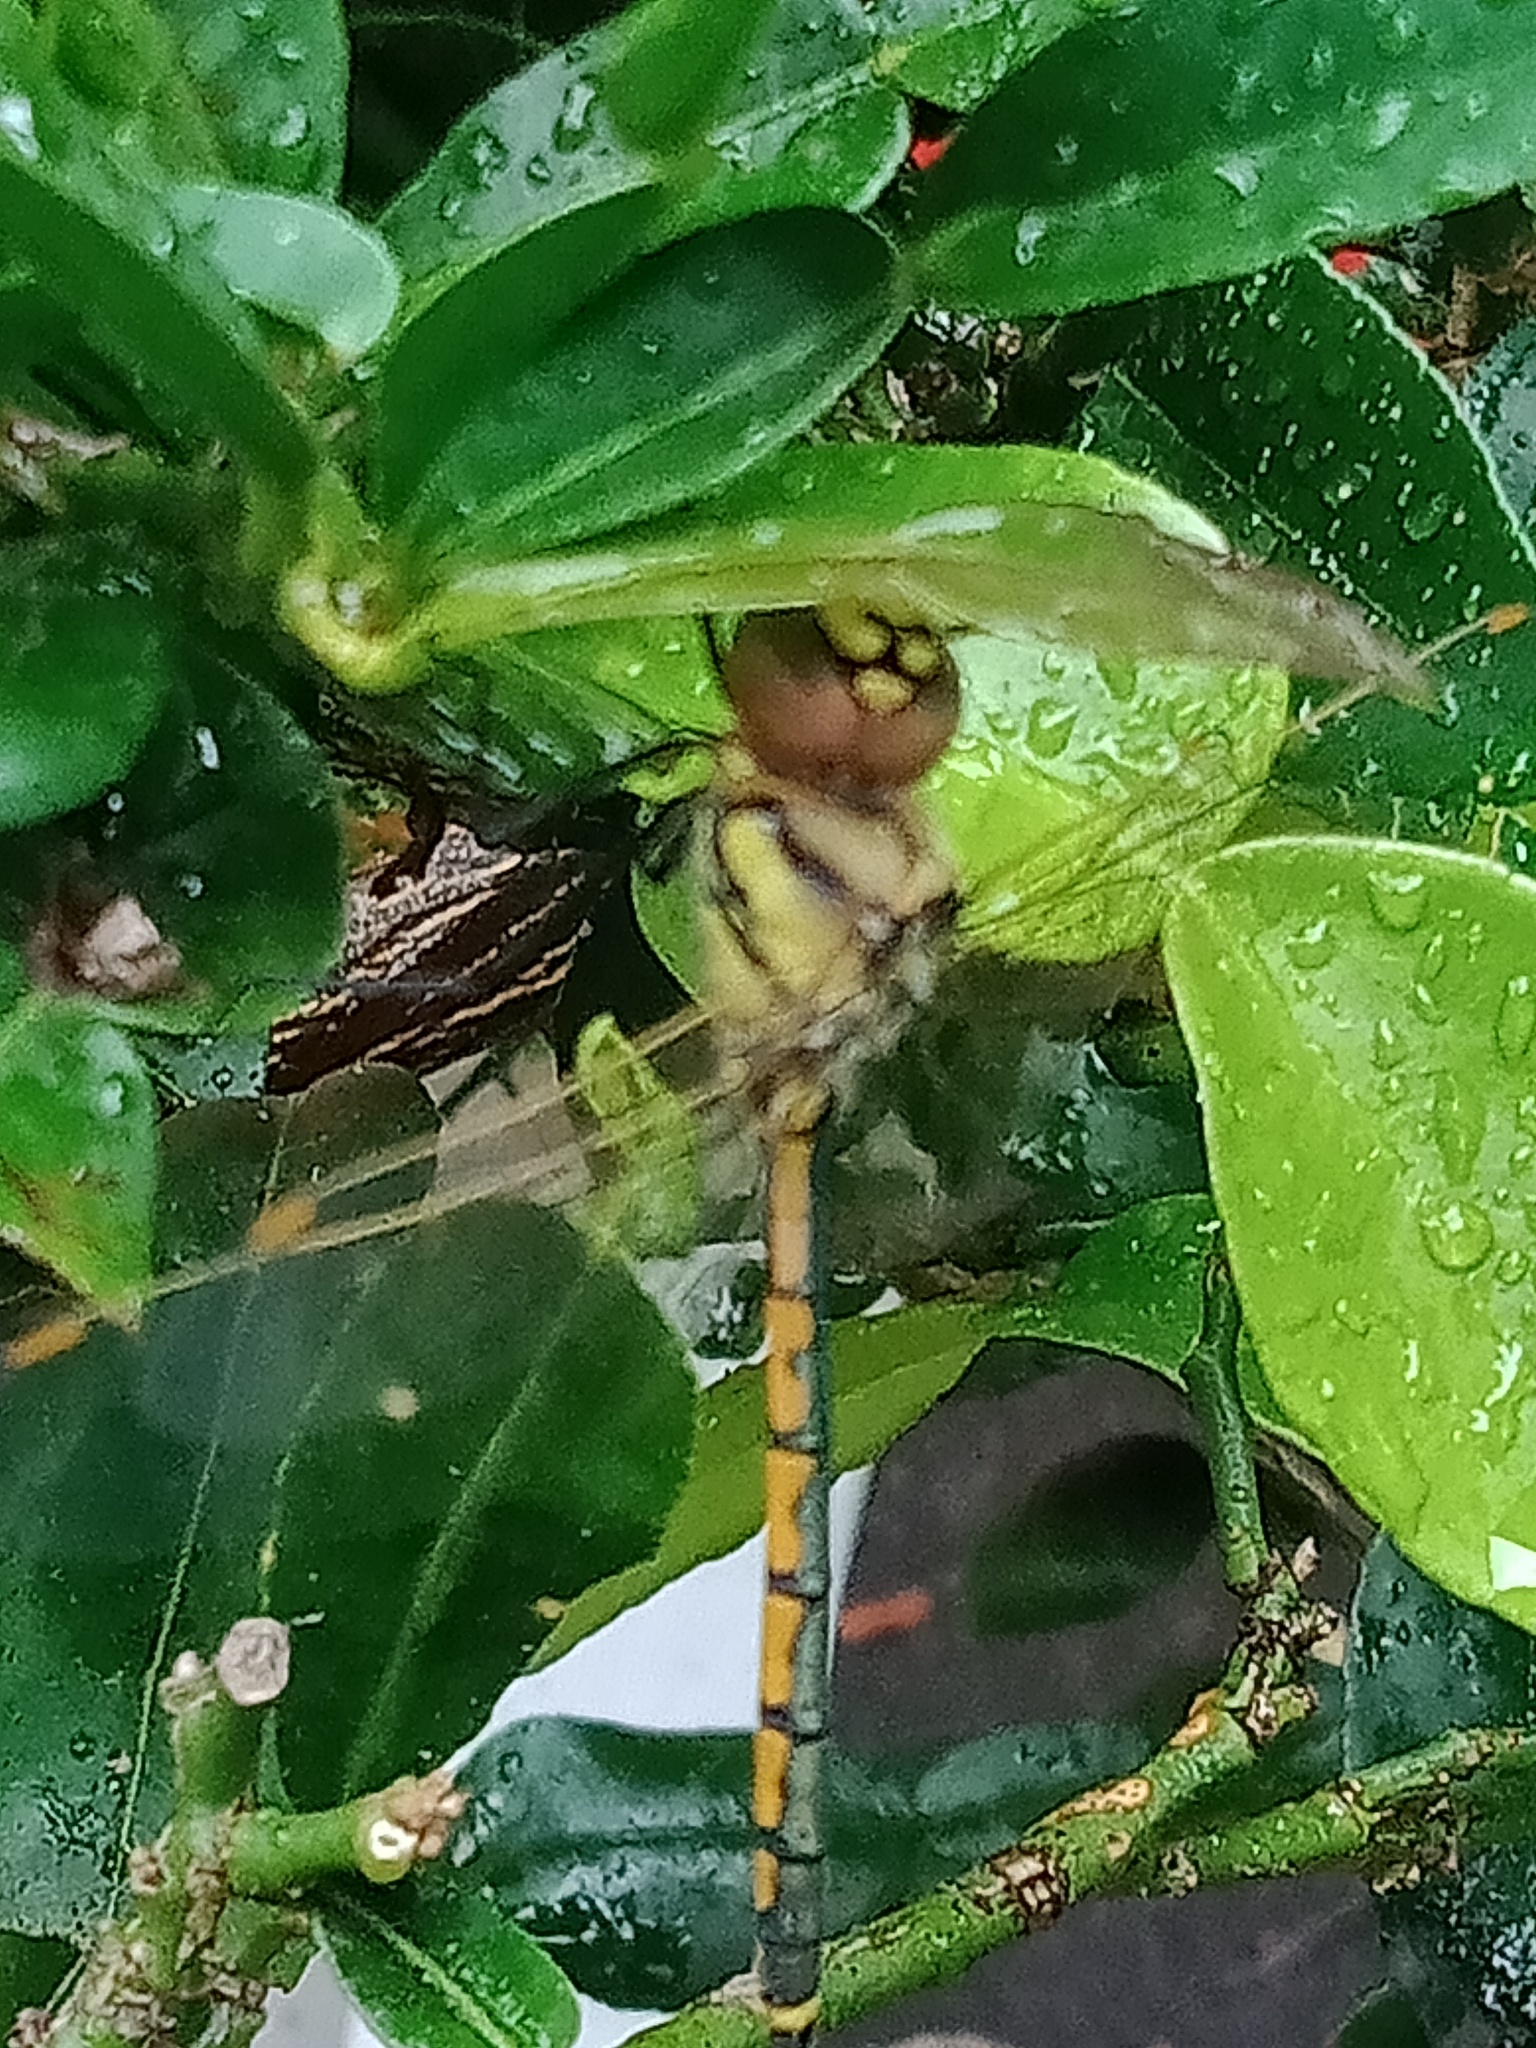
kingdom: Animalia
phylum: Arthropoda
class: Insecta
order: Odonata
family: Corduliidae
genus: Hemicordulia
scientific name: Hemicordulia tau
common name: Tau emerald
